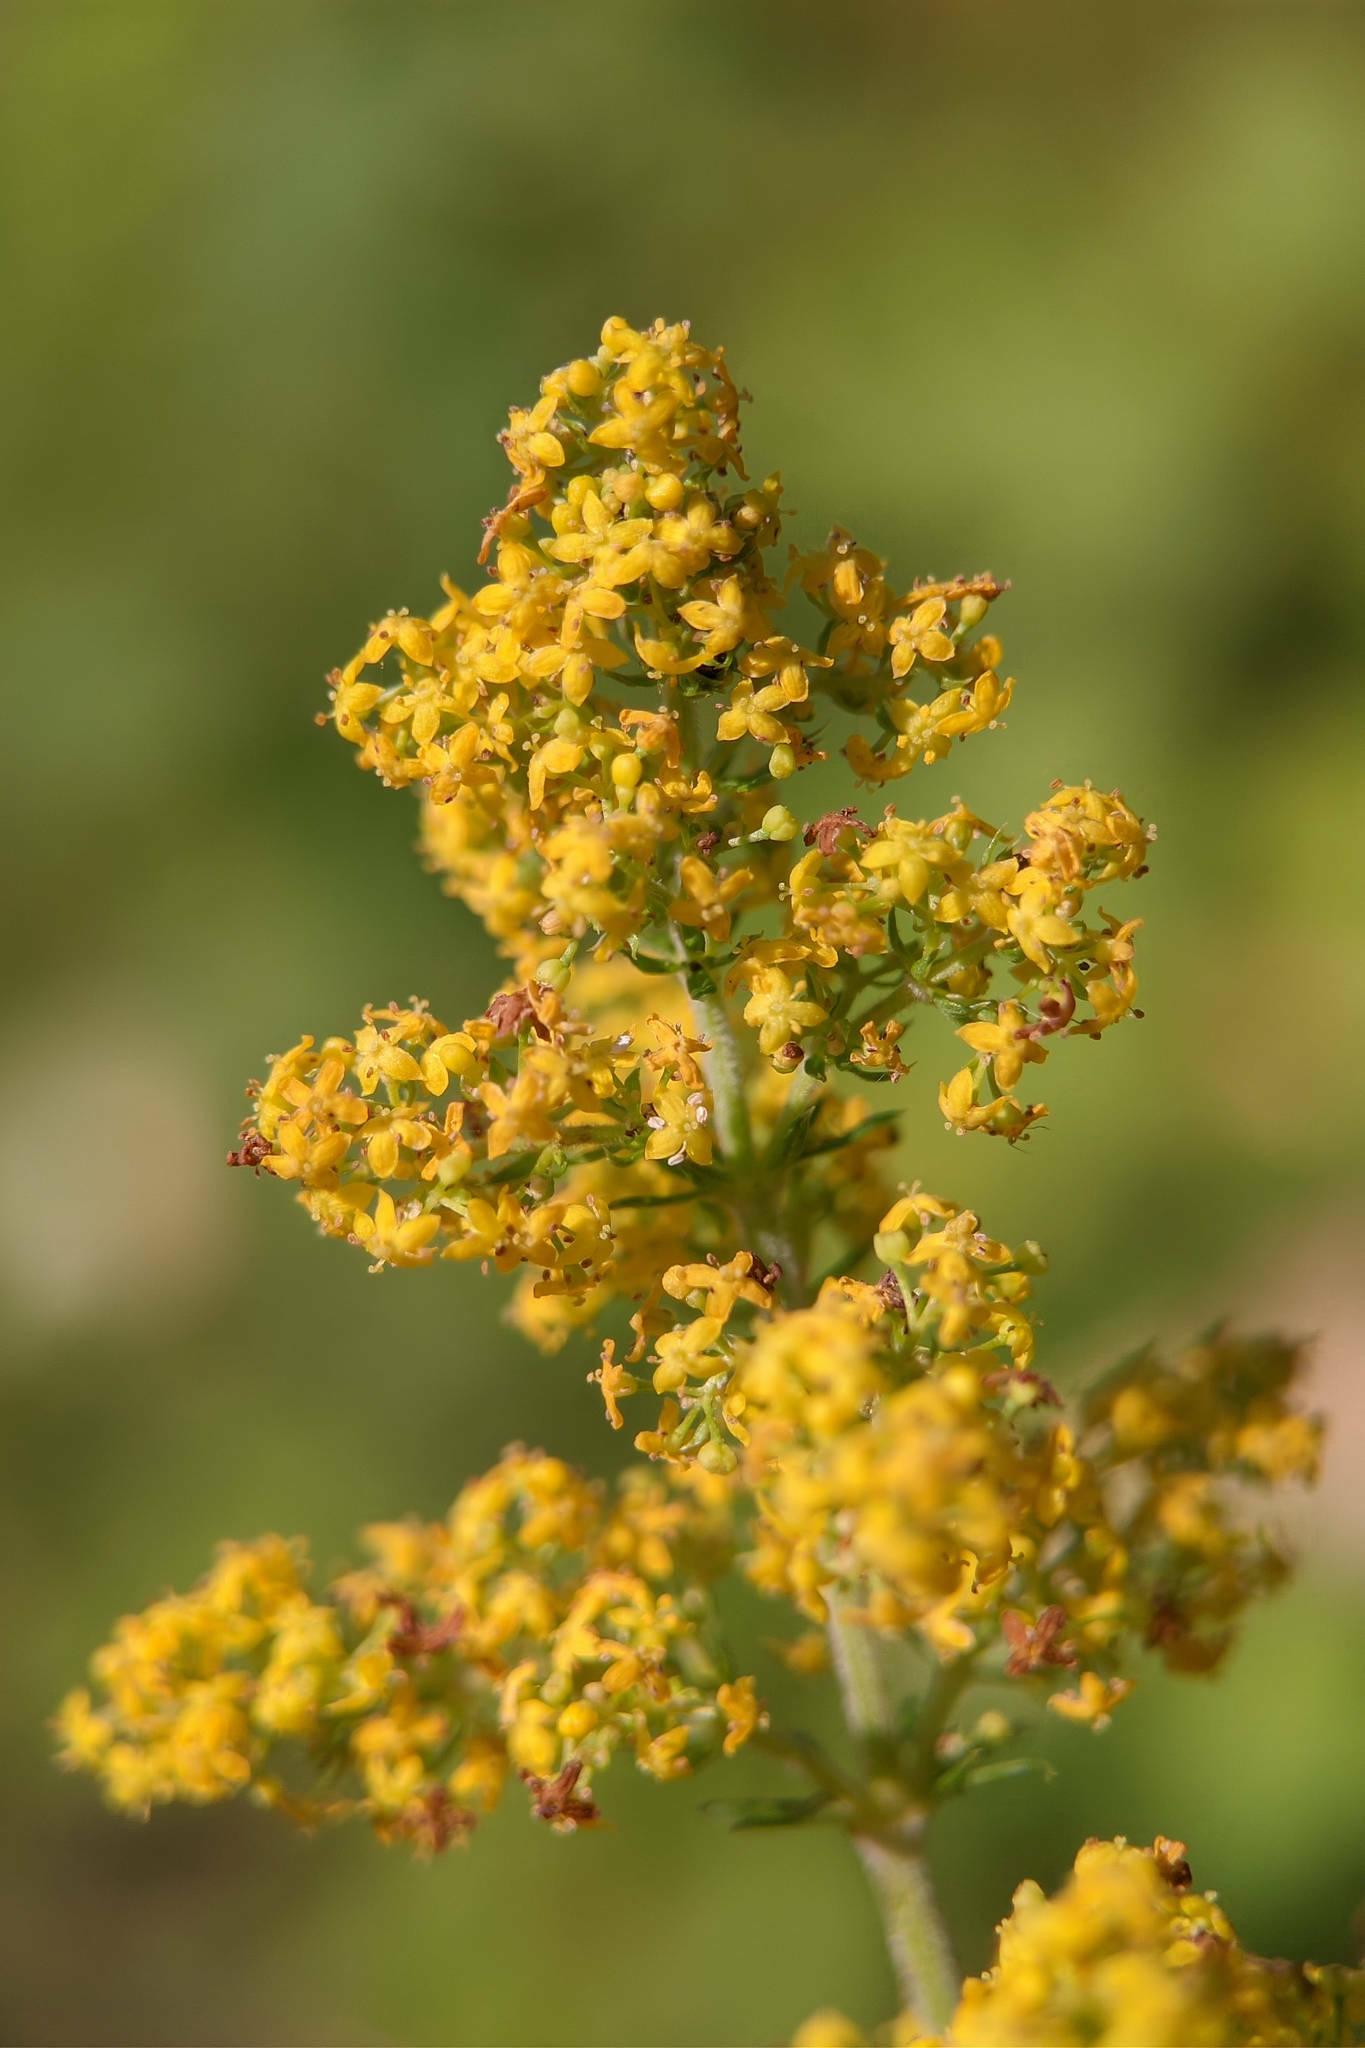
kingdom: Plantae
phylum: Tracheophyta
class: Magnoliopsida
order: Gentianales
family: Rubiaceae
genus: Galium
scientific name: Galium verum
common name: Lady's bedstraw
